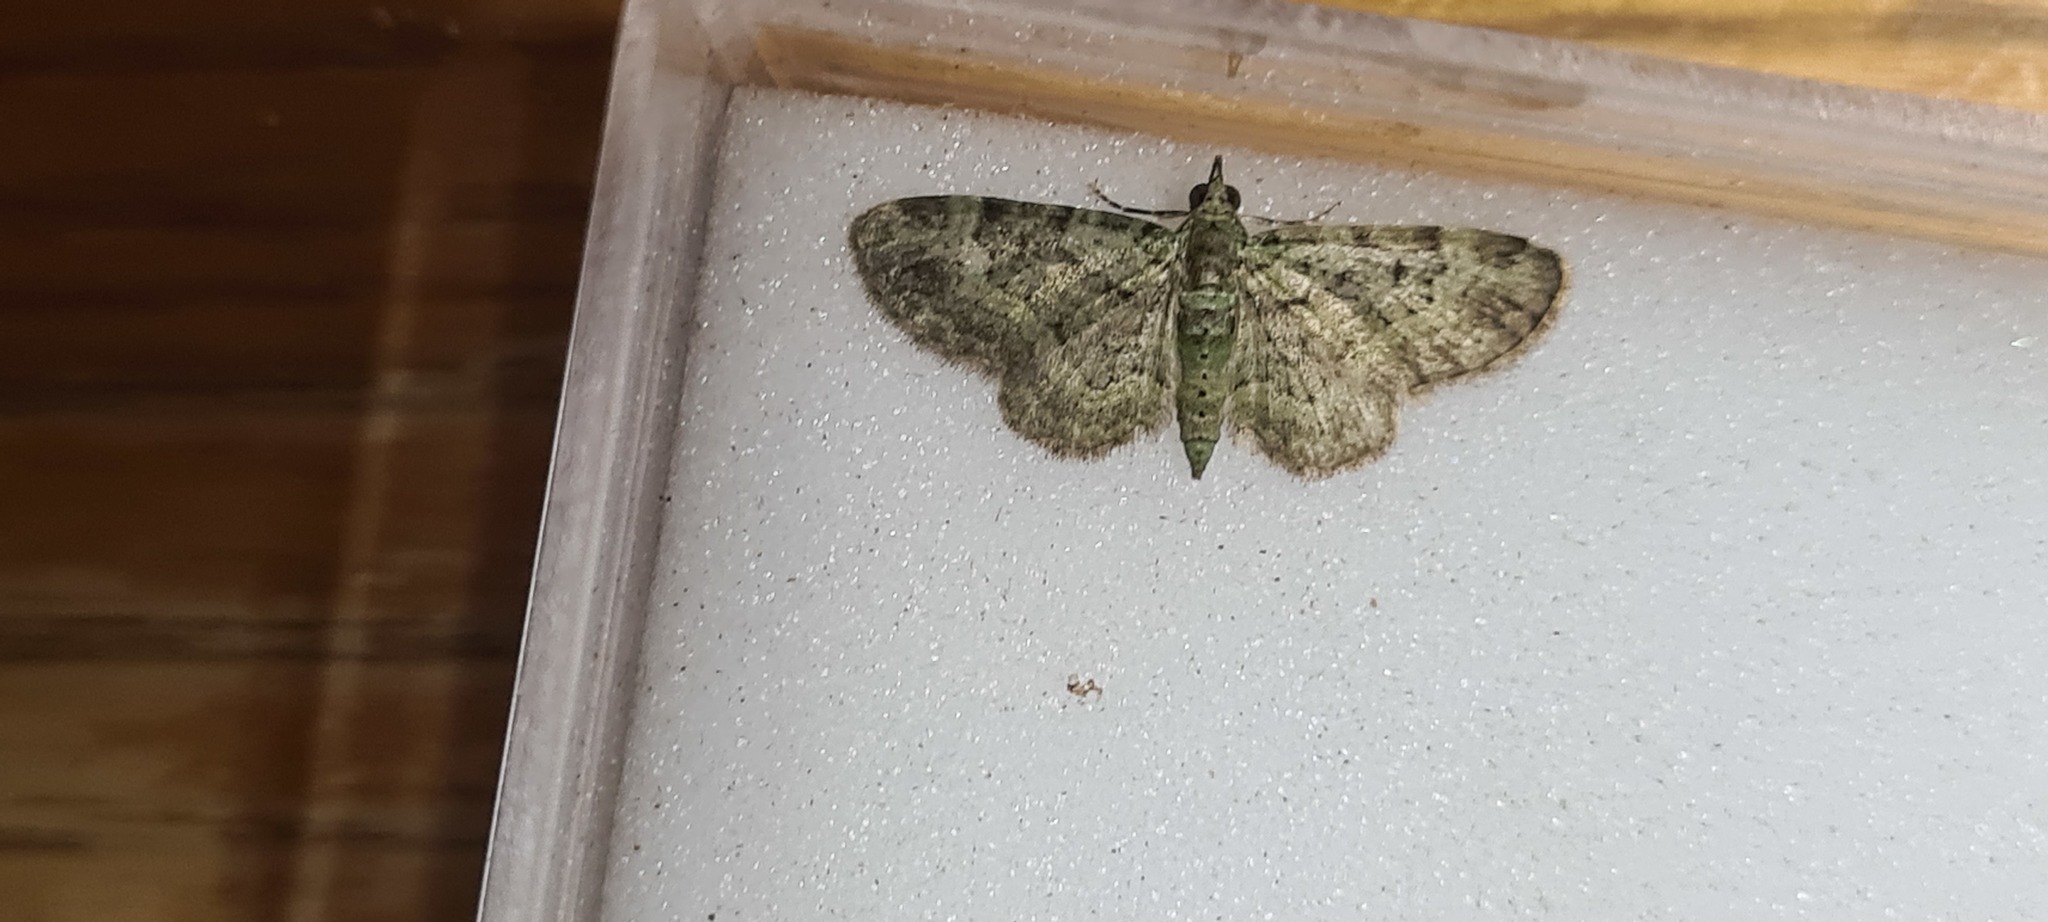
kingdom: Animalia
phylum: Arthropoda
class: Insecta
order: Lepidoptera
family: Geometridae
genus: Pasiphila
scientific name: Pasiphila rectangulata
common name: Green pug
